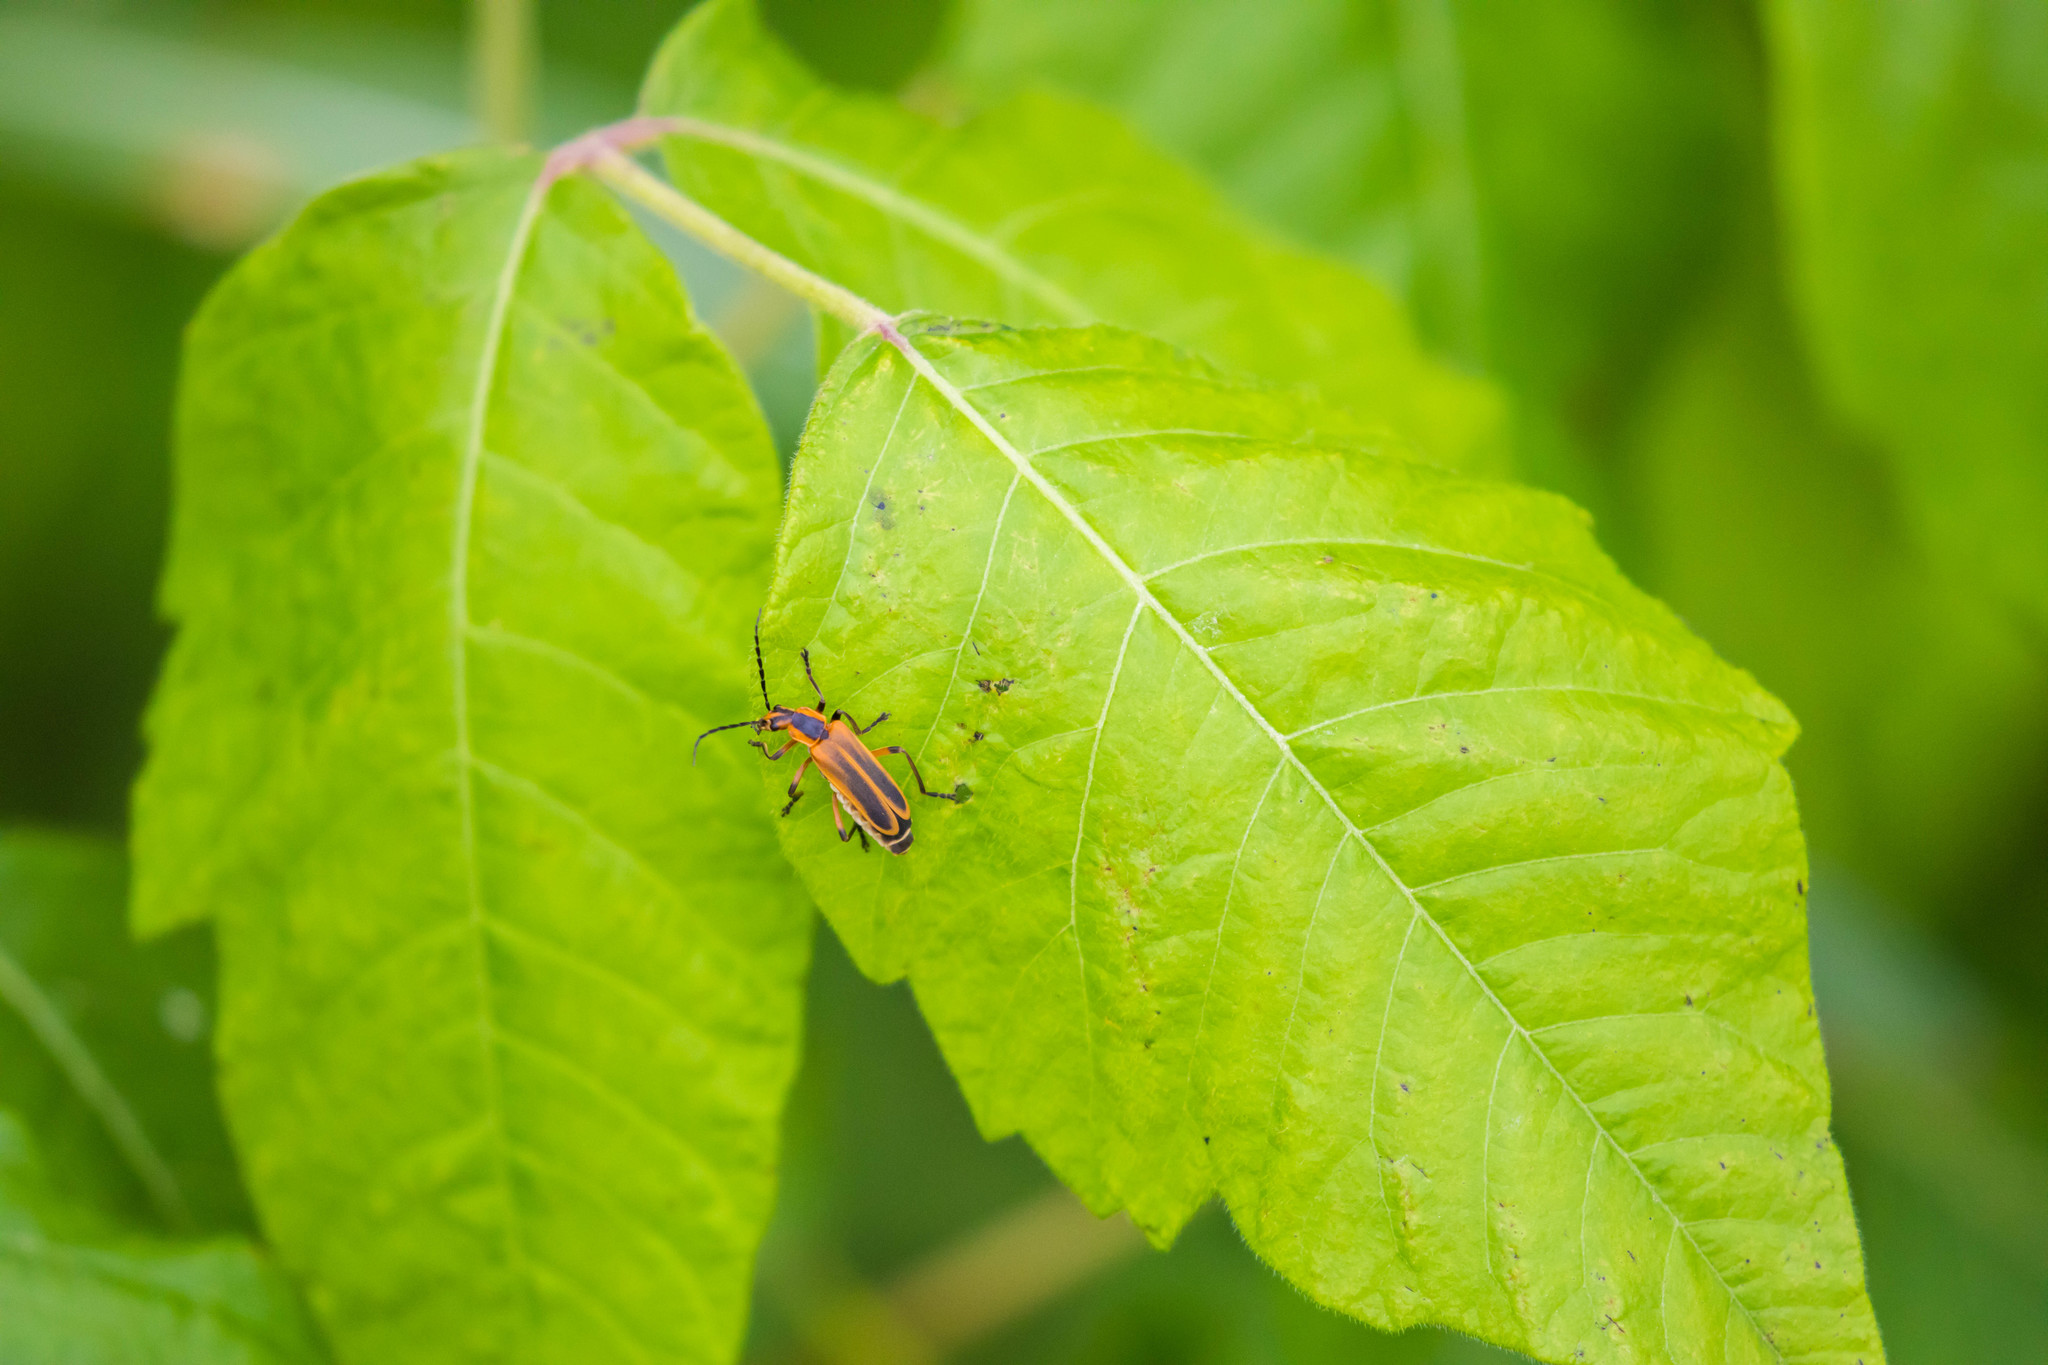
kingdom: Animalia
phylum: Arthropoda
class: Insecta
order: Coleoptera
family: Cantharidae
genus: Chauliognathus
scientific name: Chauliognathus marginatus
